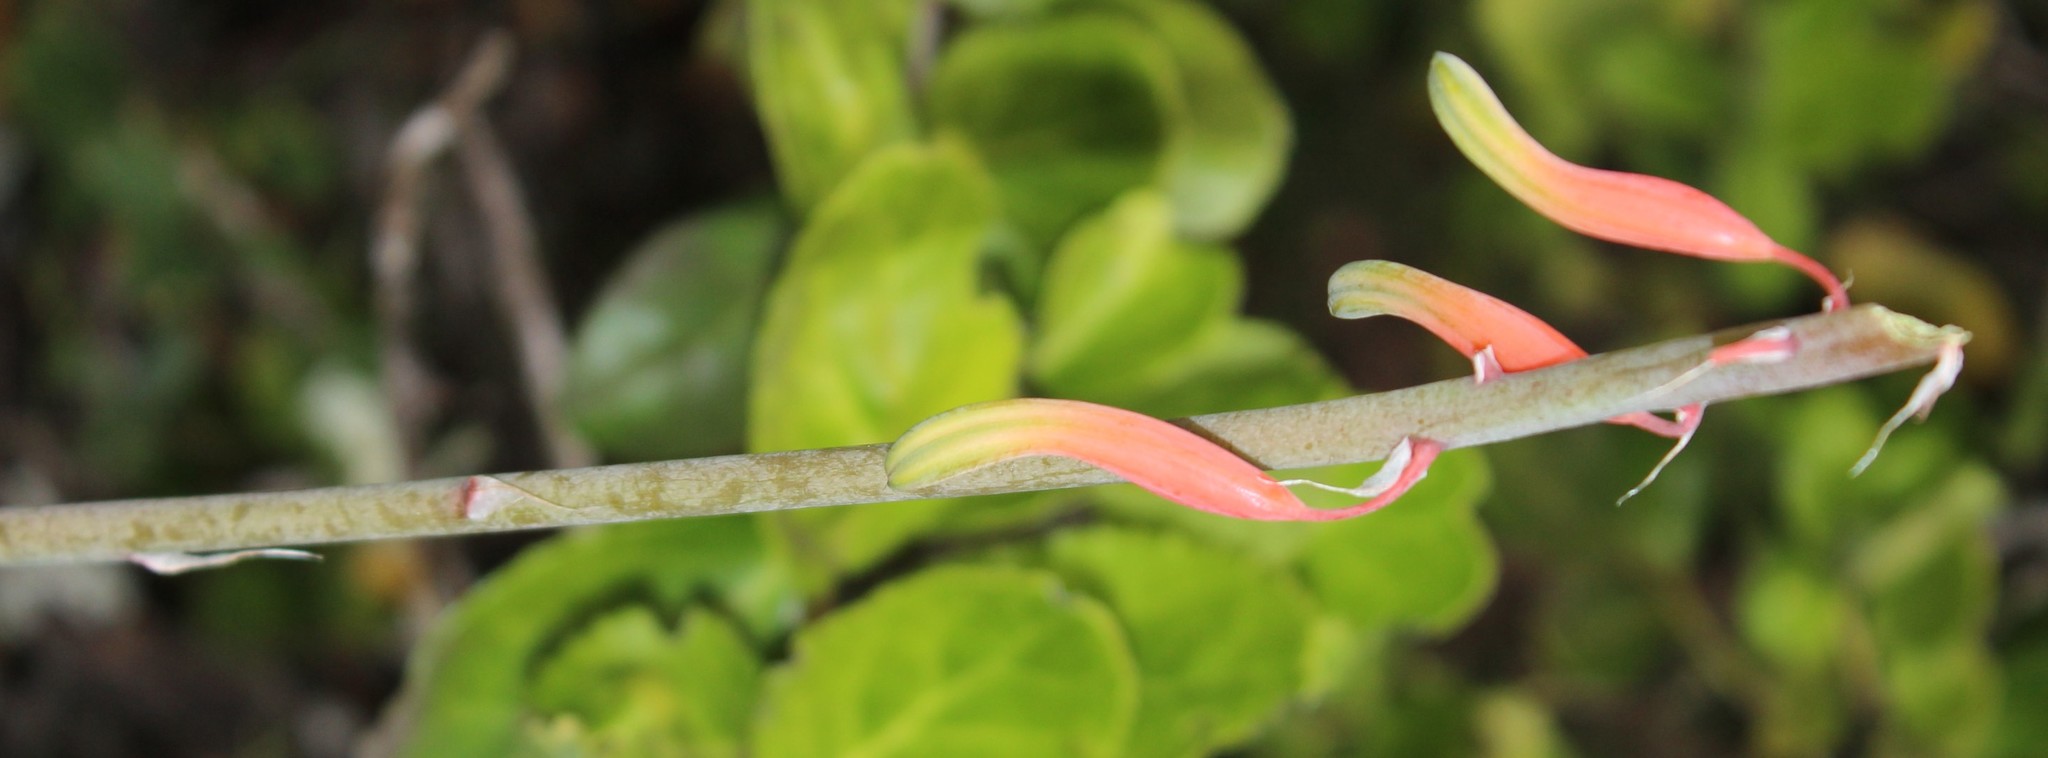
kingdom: Plantae
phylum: Tracheophyta
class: Liliopsida
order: Asparagales
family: Asphodelaceae
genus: Gasteria
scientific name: Gasteria acinacifolia
